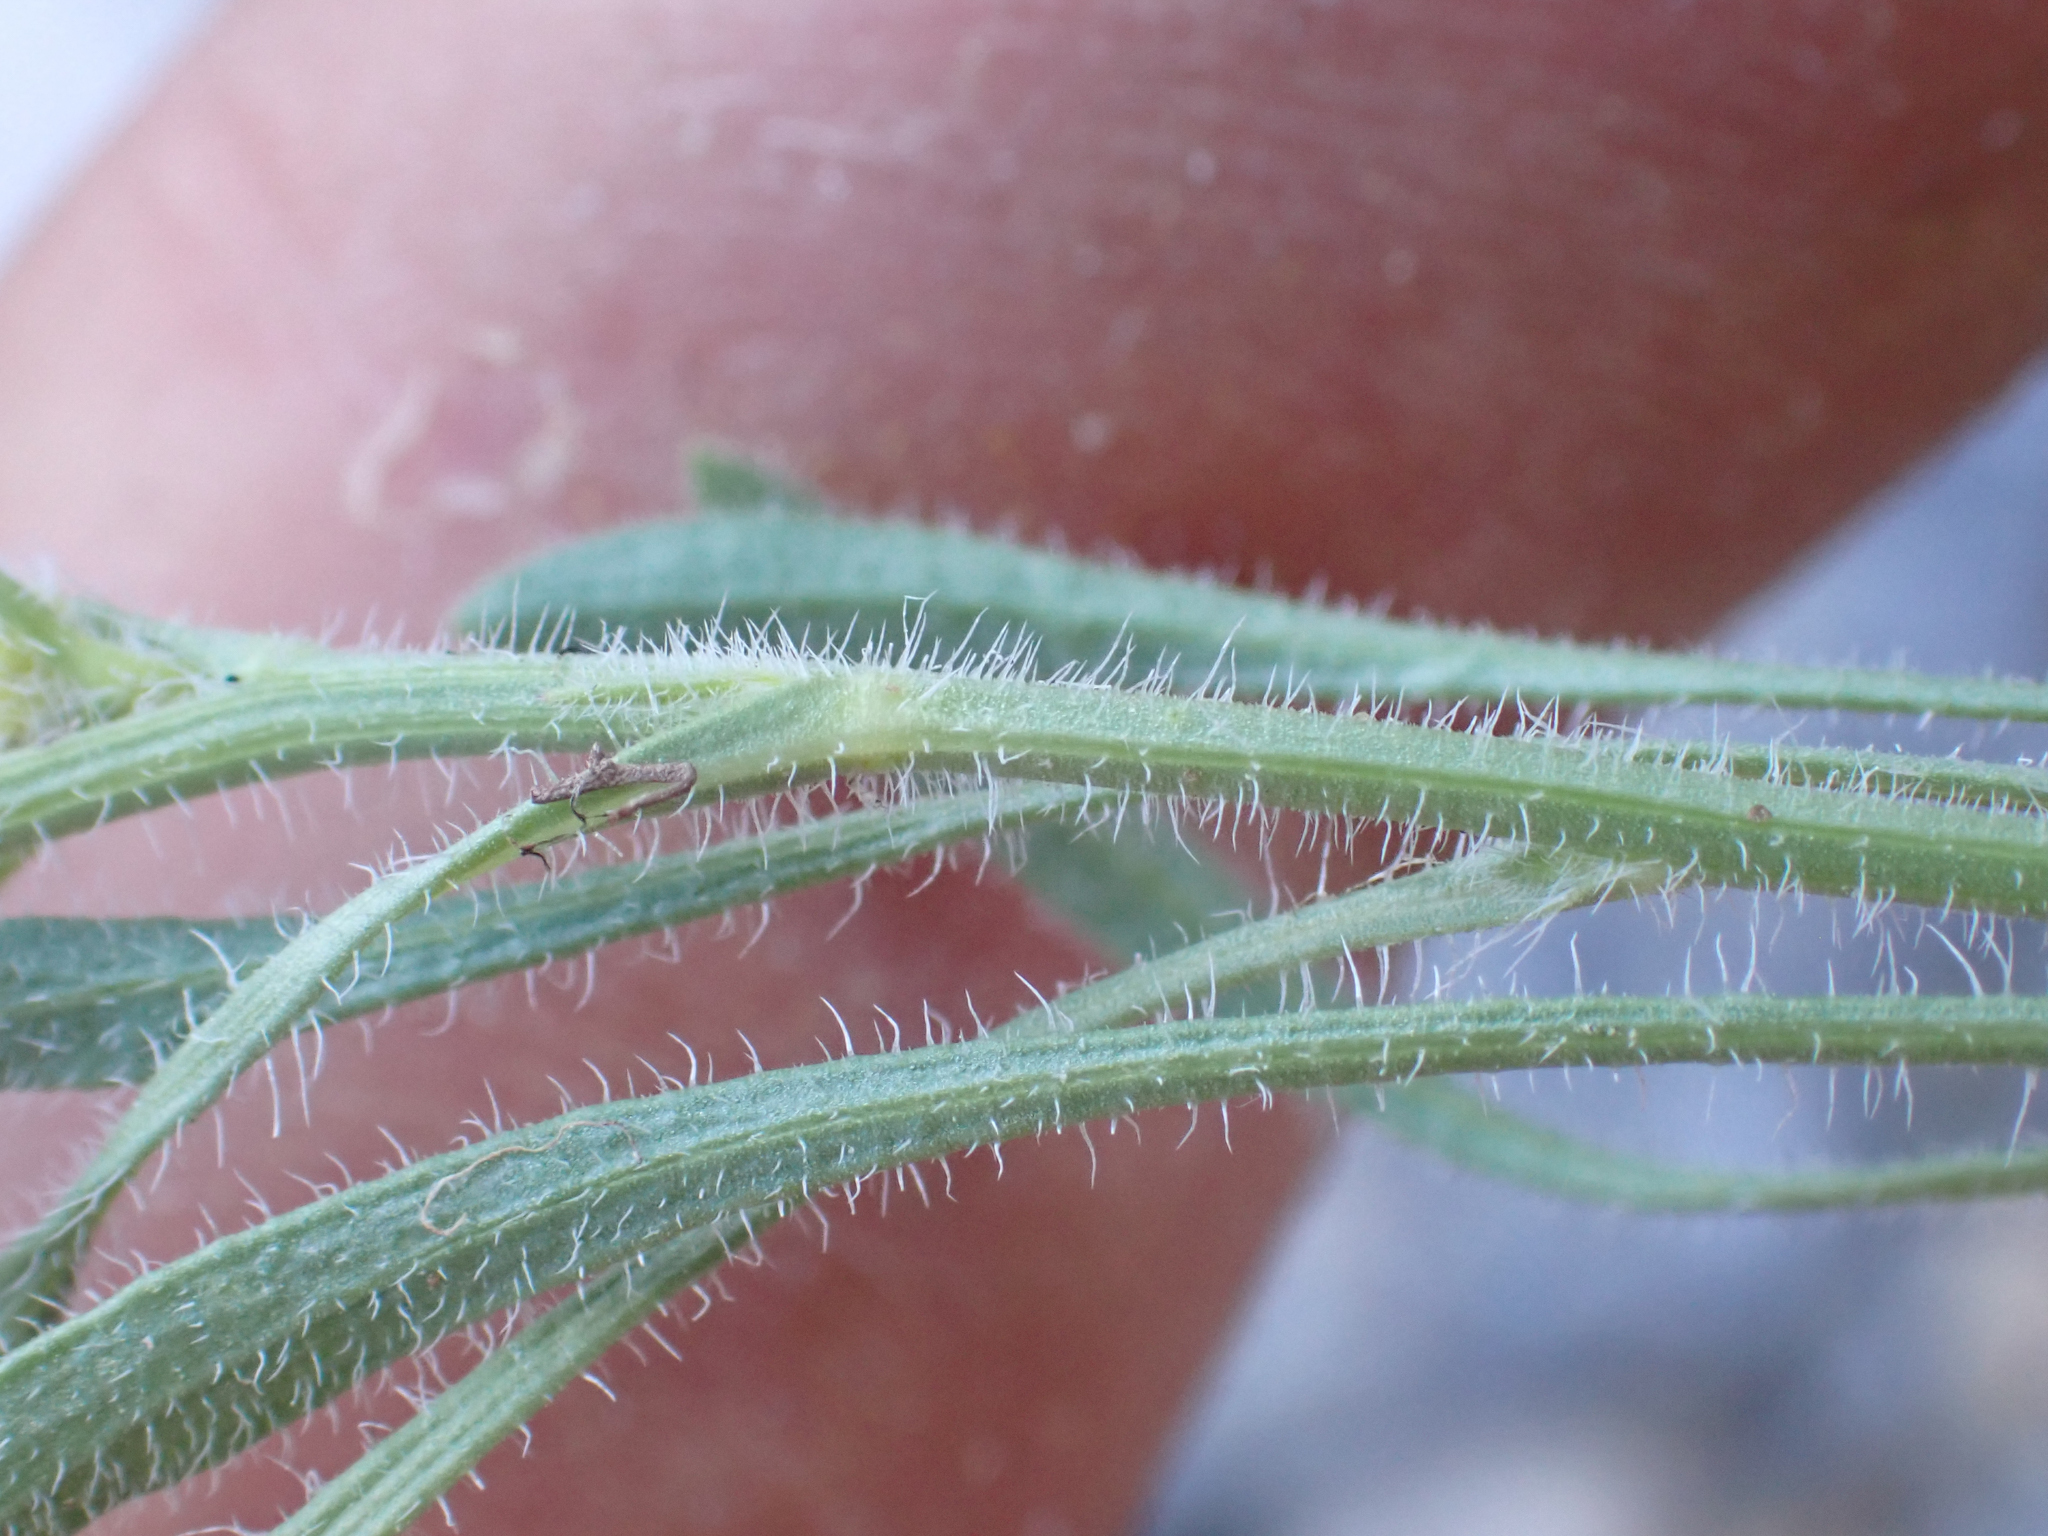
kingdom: Plantae
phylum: Tracheophyta
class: Magnoliopsida
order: Asterales
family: Asteraceae
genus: Erigeron
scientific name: Erigeron concinnus
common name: Navajo fleabane
